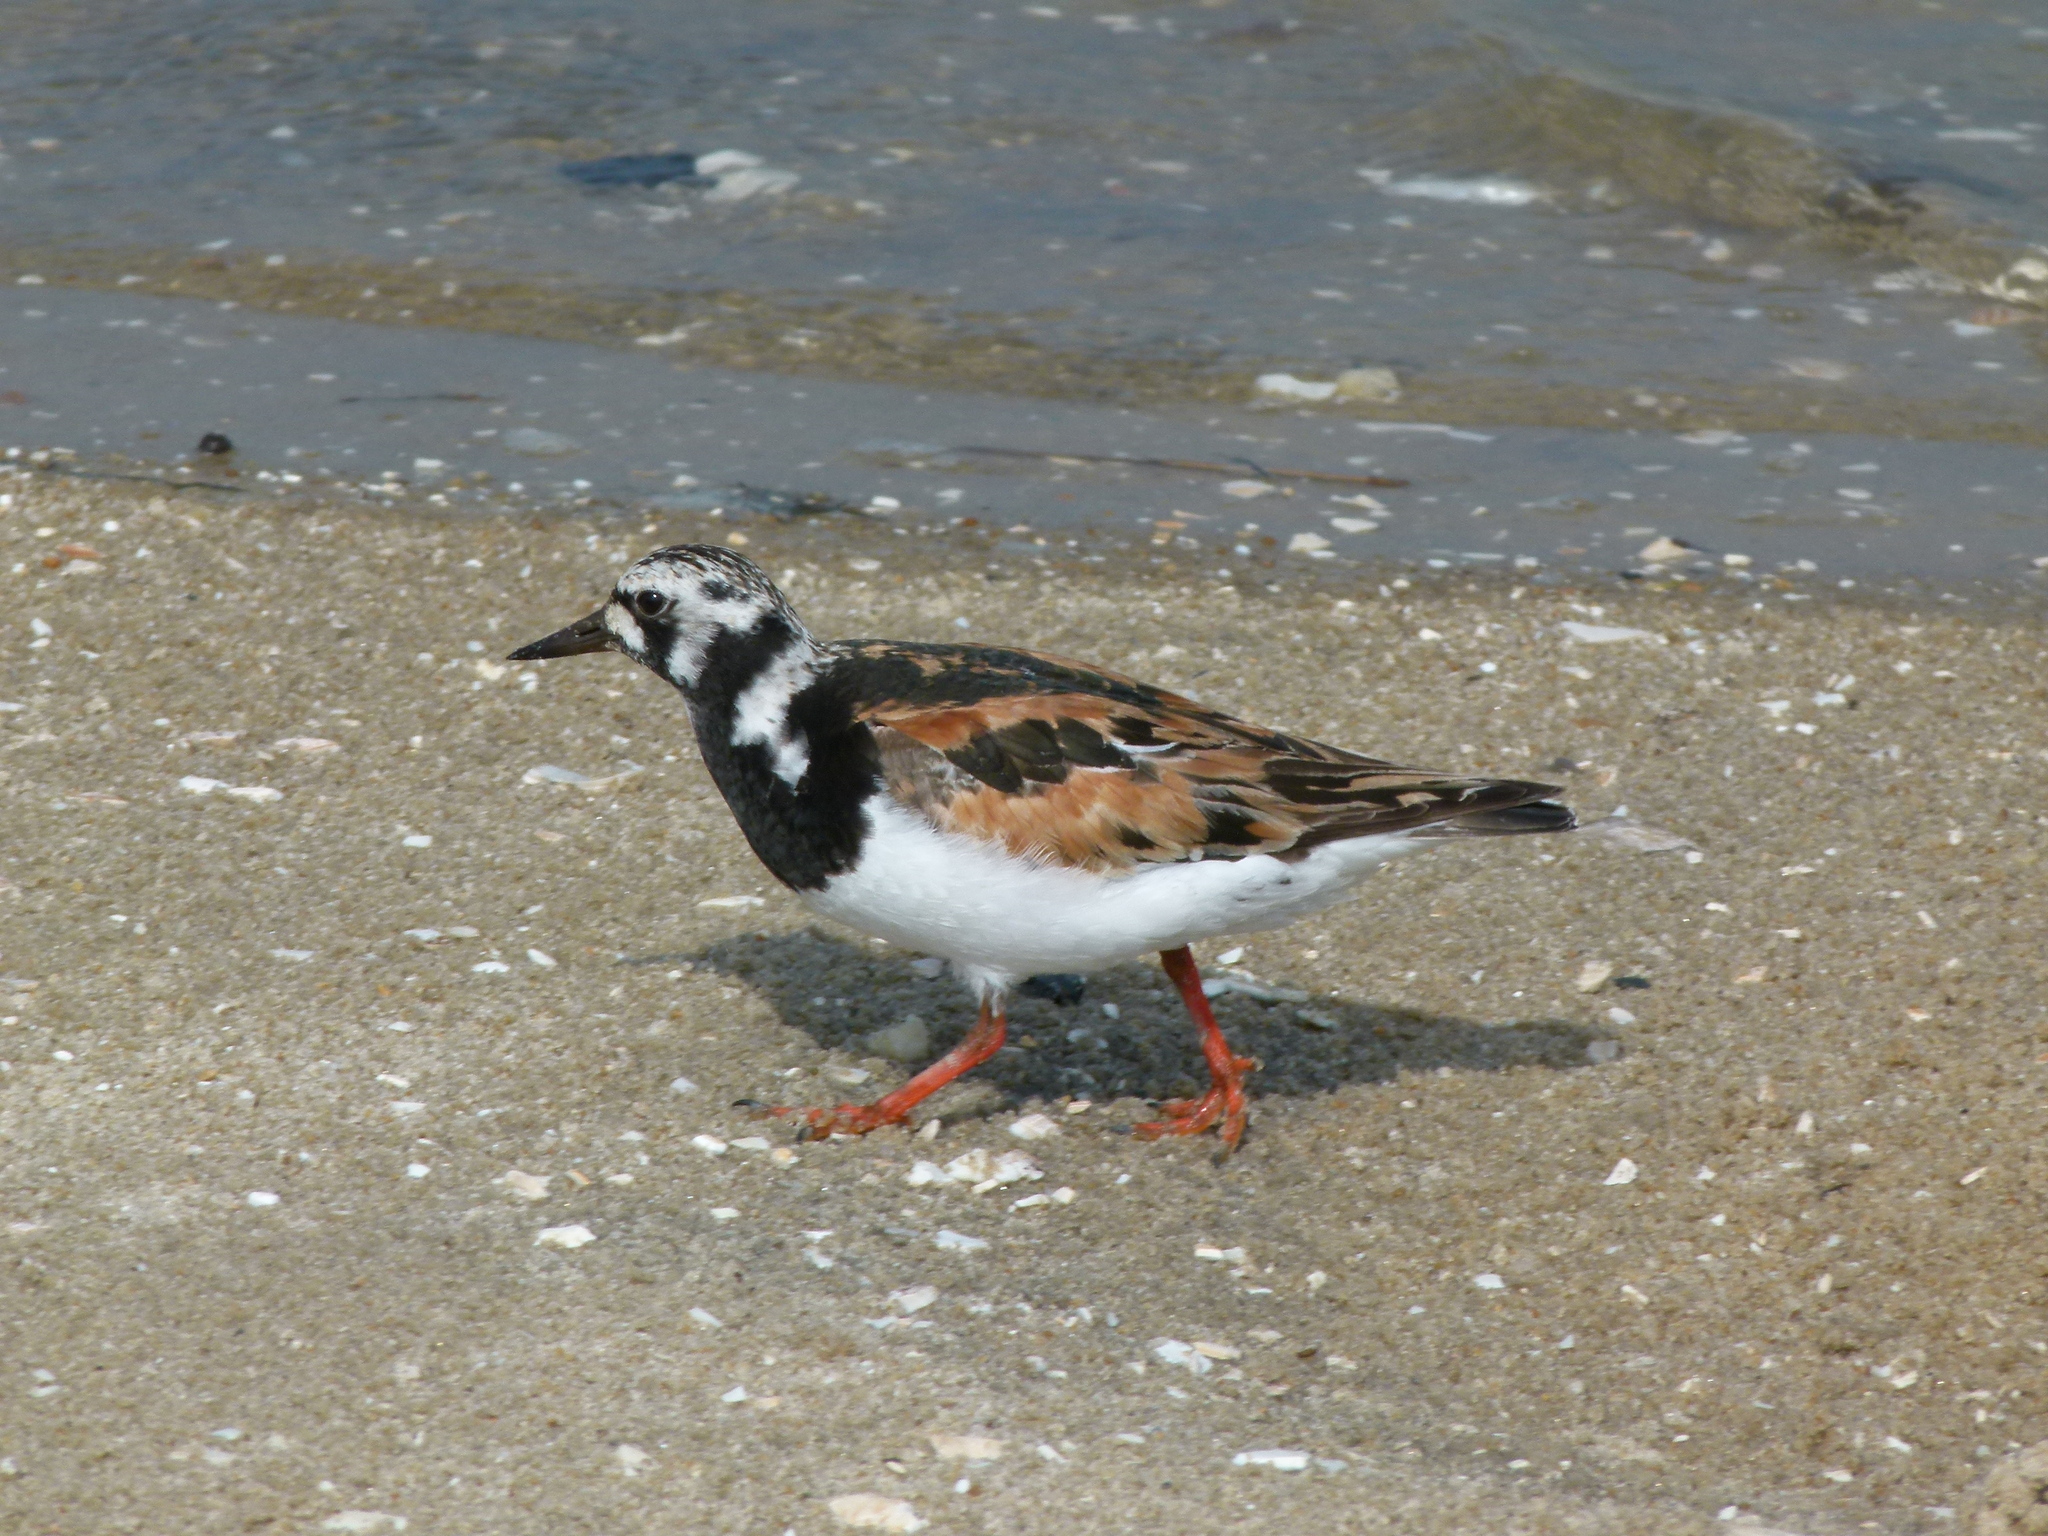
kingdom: Animalia
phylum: Chordata
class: Aves
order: Charadriiformes
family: Scolopacidae
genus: Arenaria
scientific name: Arenaria interpres
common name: Ruddy turnstone
